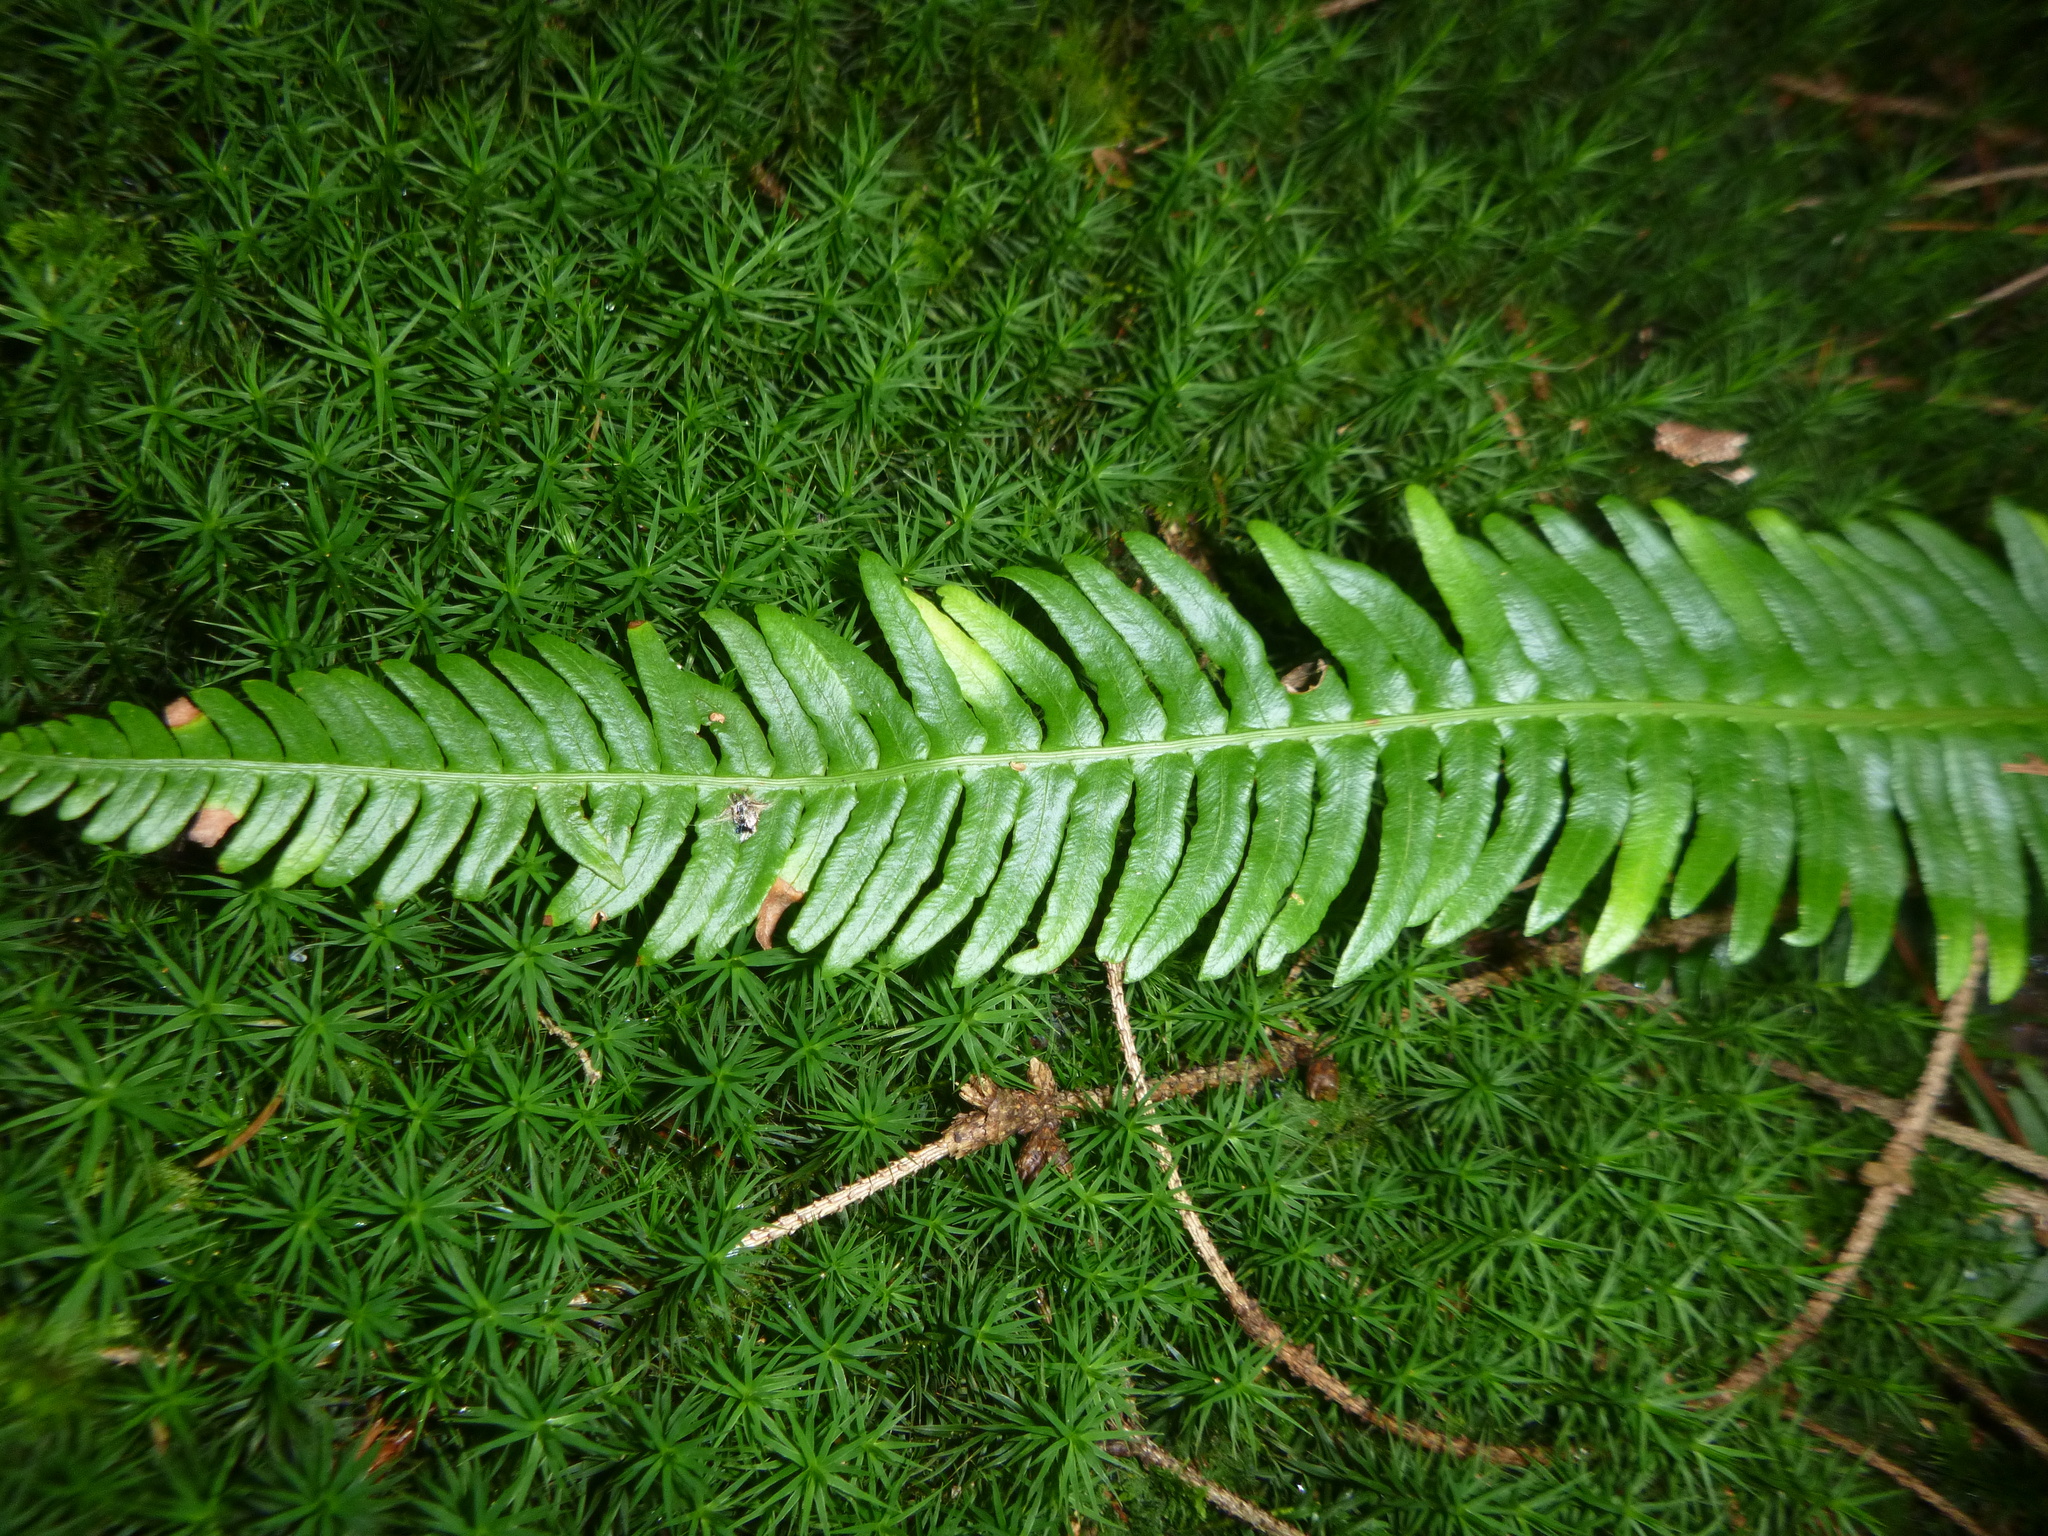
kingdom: Plantae
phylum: Tracheophyta
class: Polypodiopsida
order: Polypodiales
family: Blechnaceae
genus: Struthiopteris
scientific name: Struthiopteris spicant
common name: Deer fern
